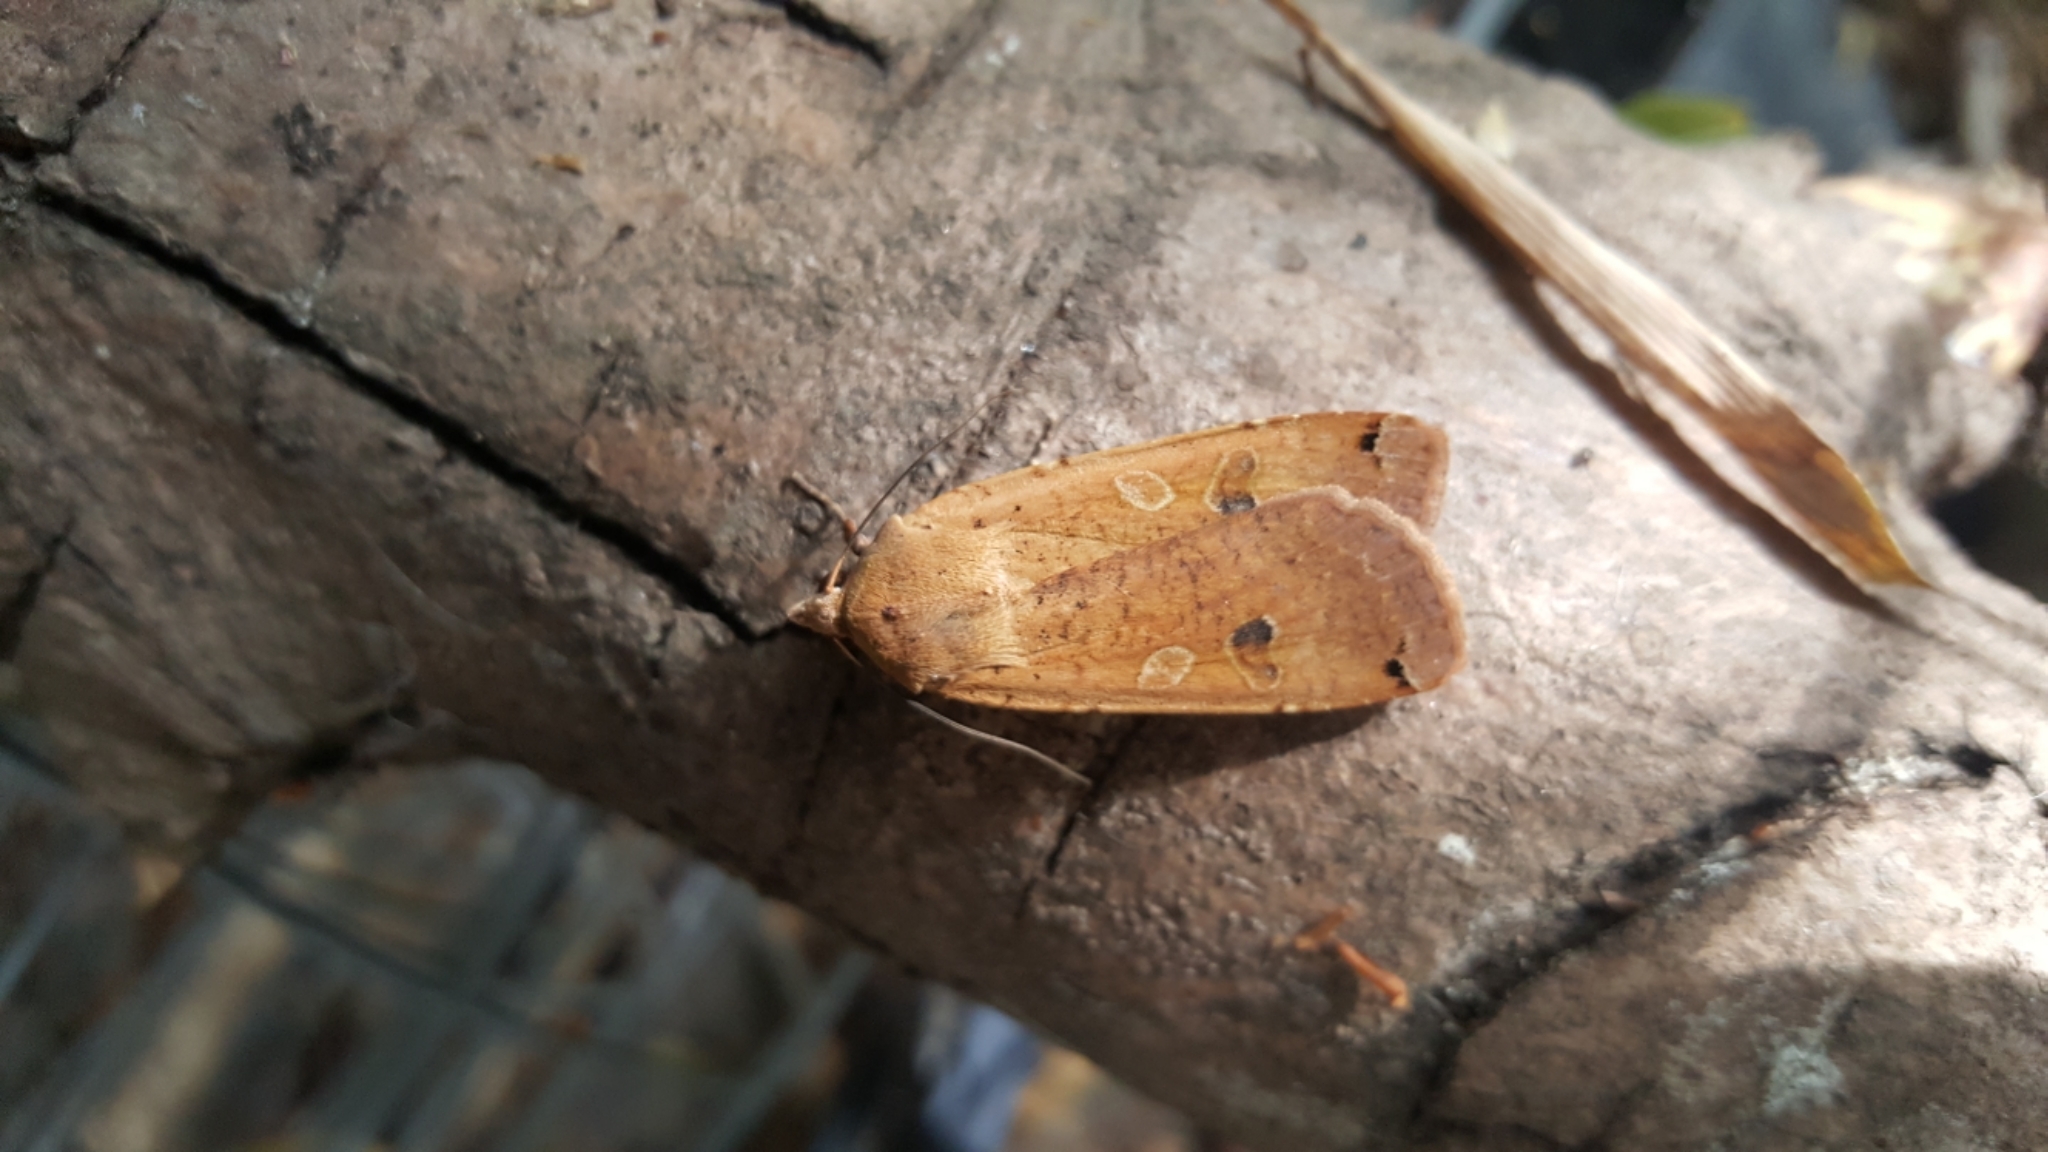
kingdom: Animalia
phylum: Arthropoda
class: Insecta
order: Lepidoptera
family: Noctuidae
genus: Noctua
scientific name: Noctua pronuba
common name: Large yellow underwing
